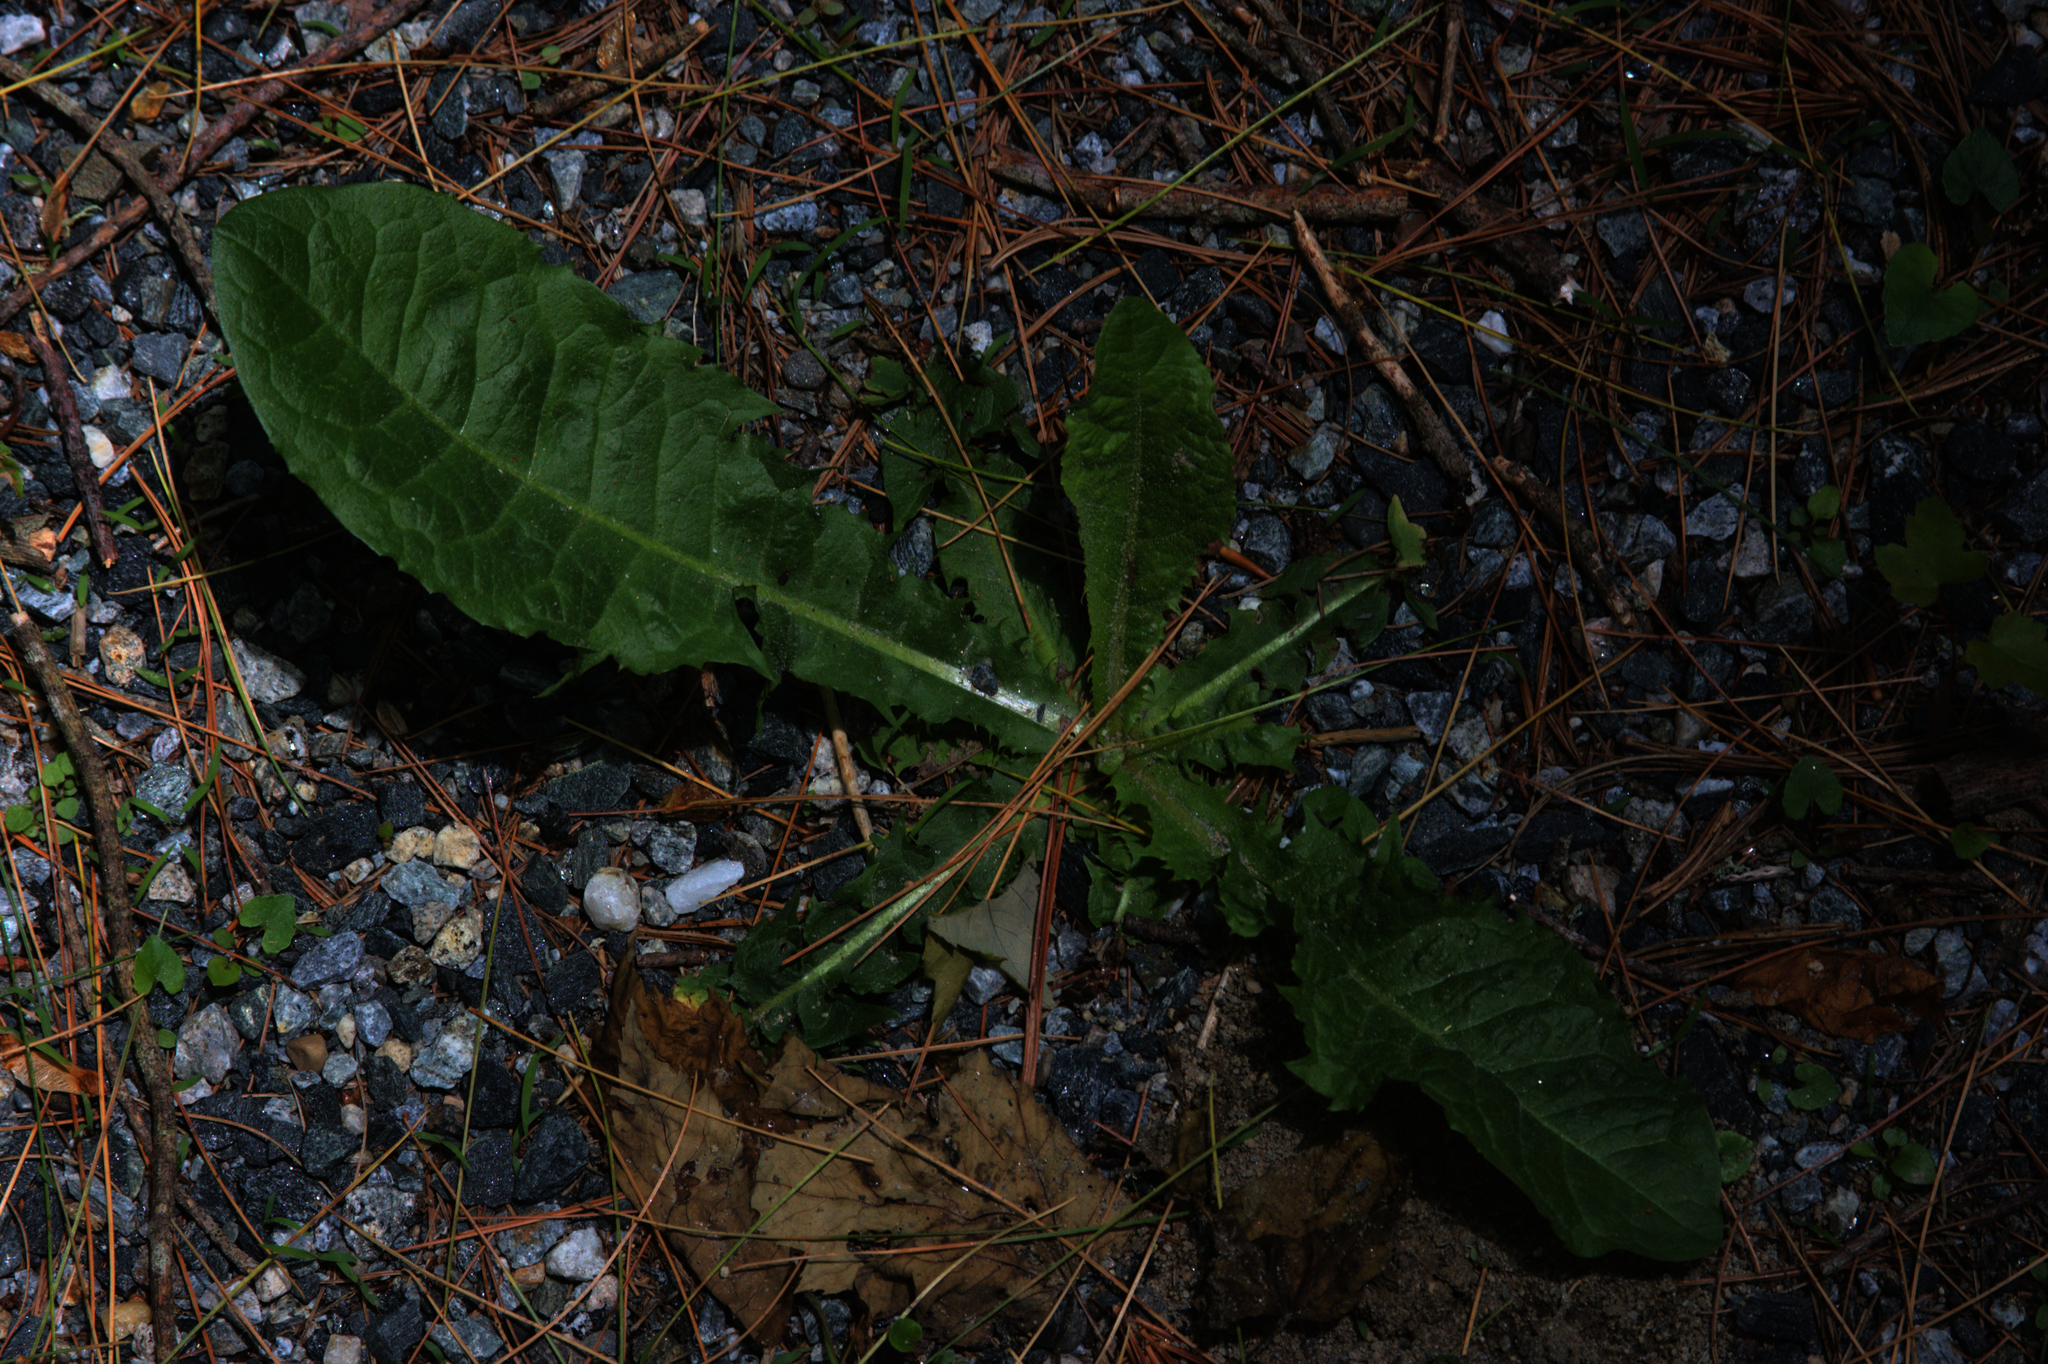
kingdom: Plantae
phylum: Tracheophyta
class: Magnoliopsida
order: Asterales
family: Asteraceae
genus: Taraxacum
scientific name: Taraxacum officinale
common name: Common dandelion
